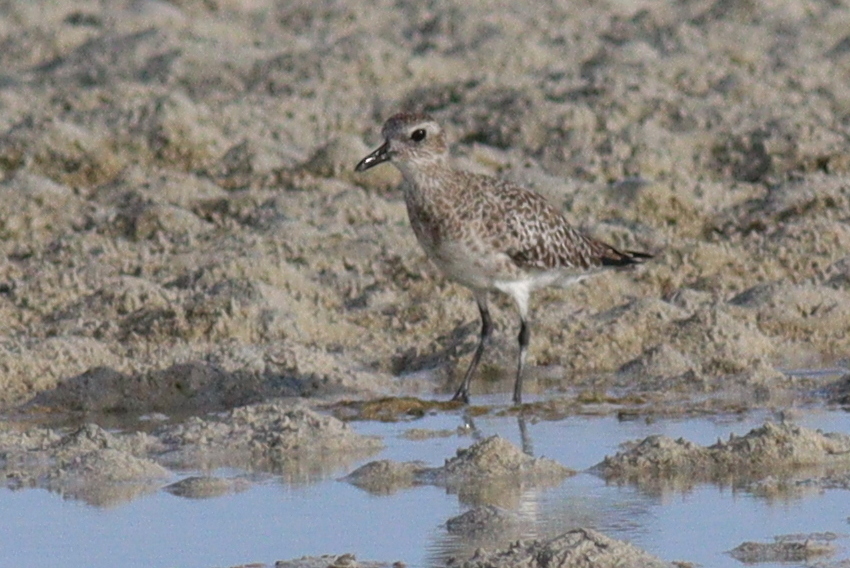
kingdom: Animalia
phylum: Chordata
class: Aves
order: Charadriiformes
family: Charadriidae
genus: Pluvialis
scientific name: Pluvialis squatarola
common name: Grey plover
